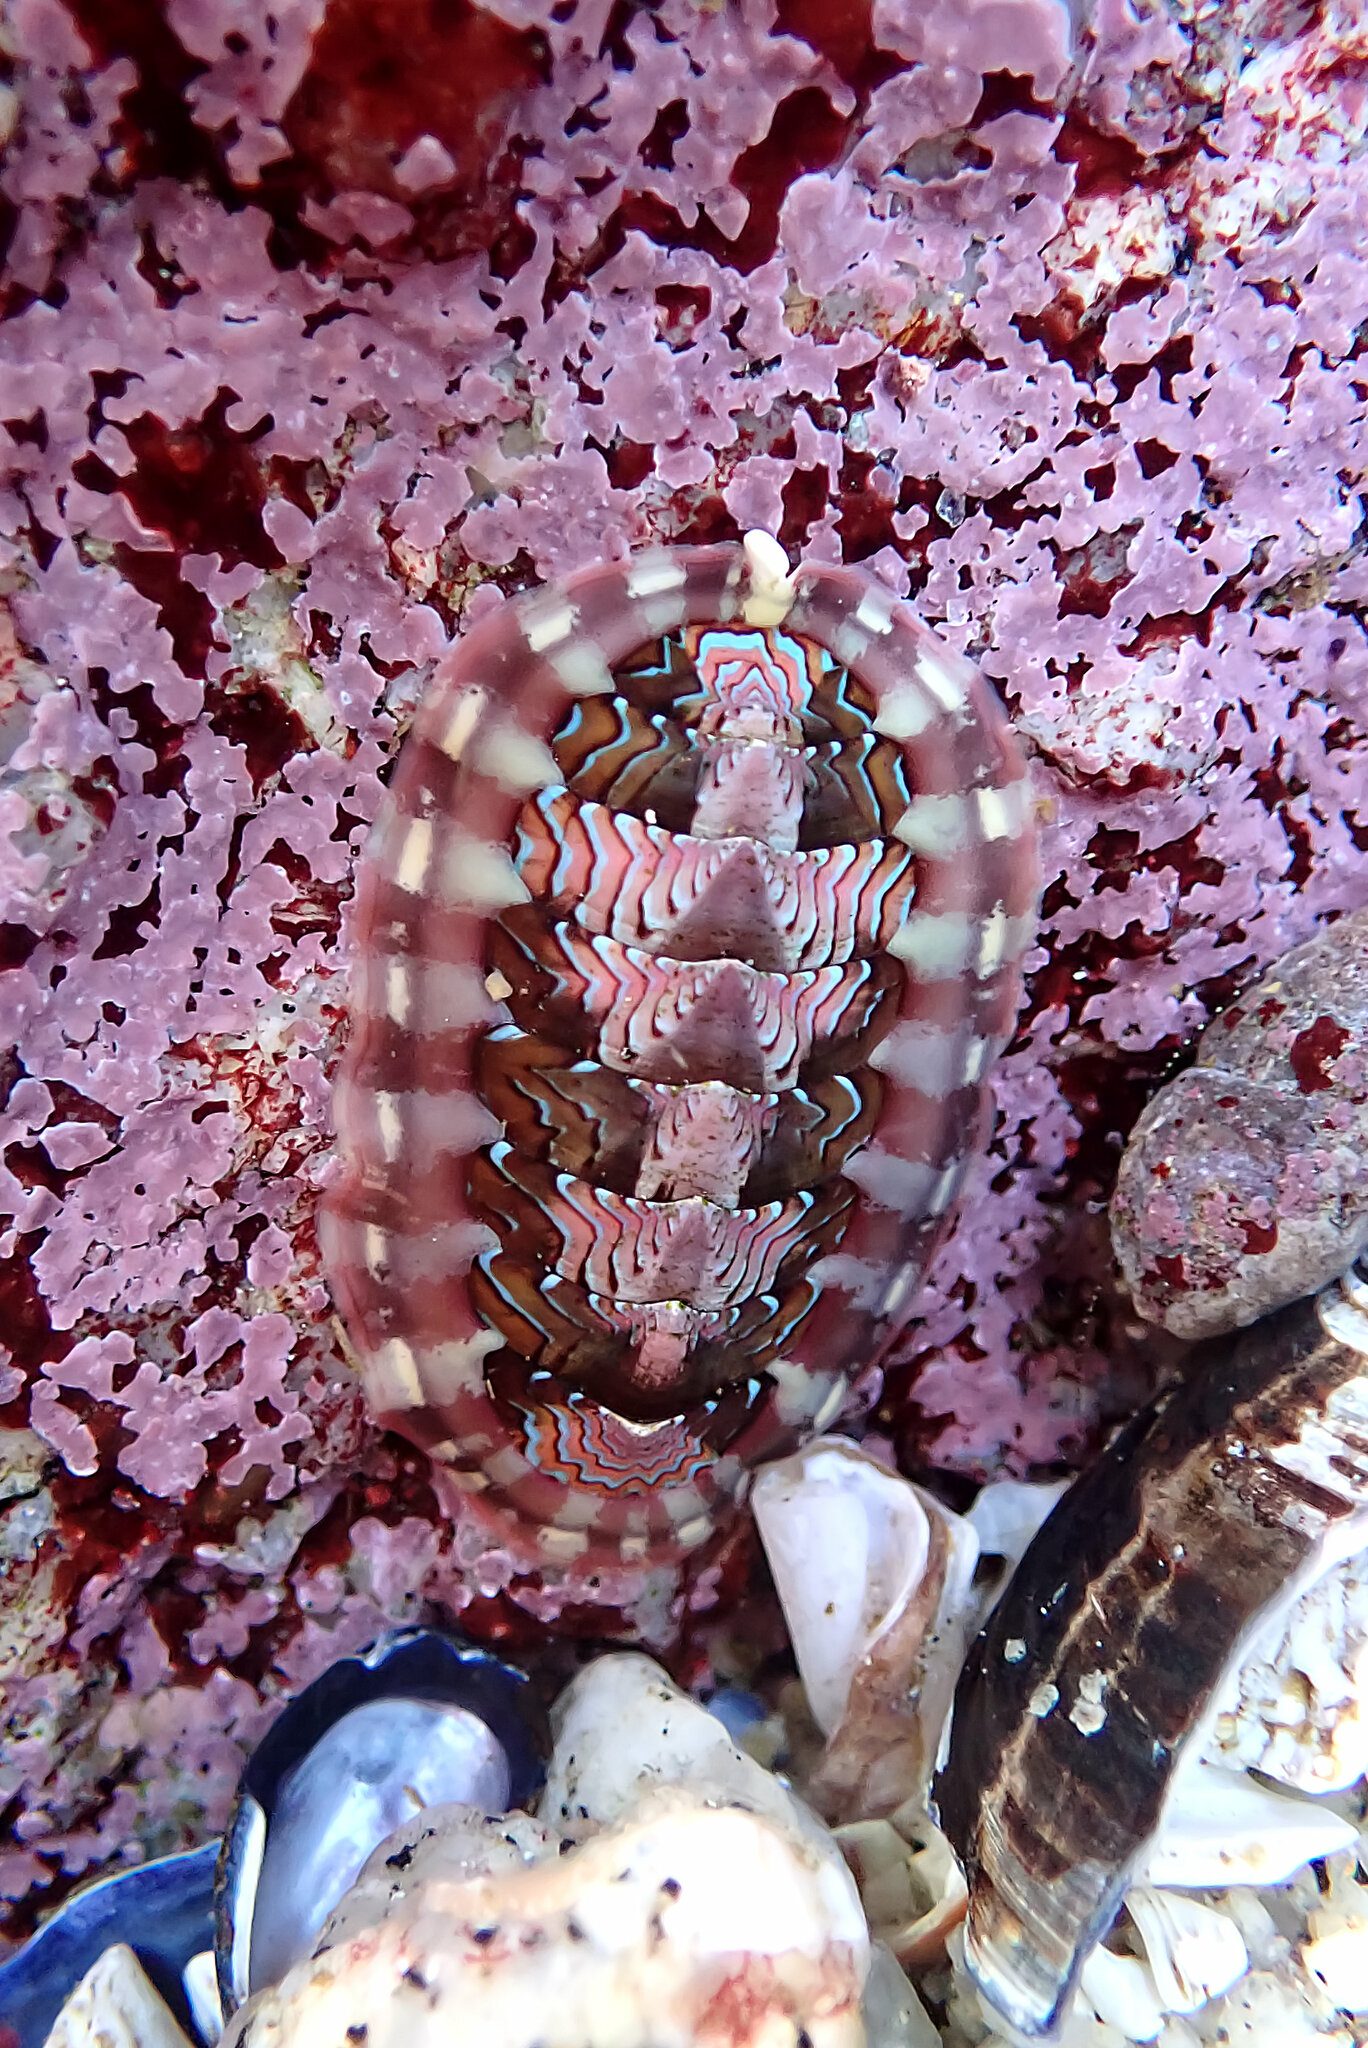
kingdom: Animalia
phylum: Mollusca
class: Polyplacophora
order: Chitonida
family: Tonicellidae
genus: Tonicella
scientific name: Tonicella lokii
